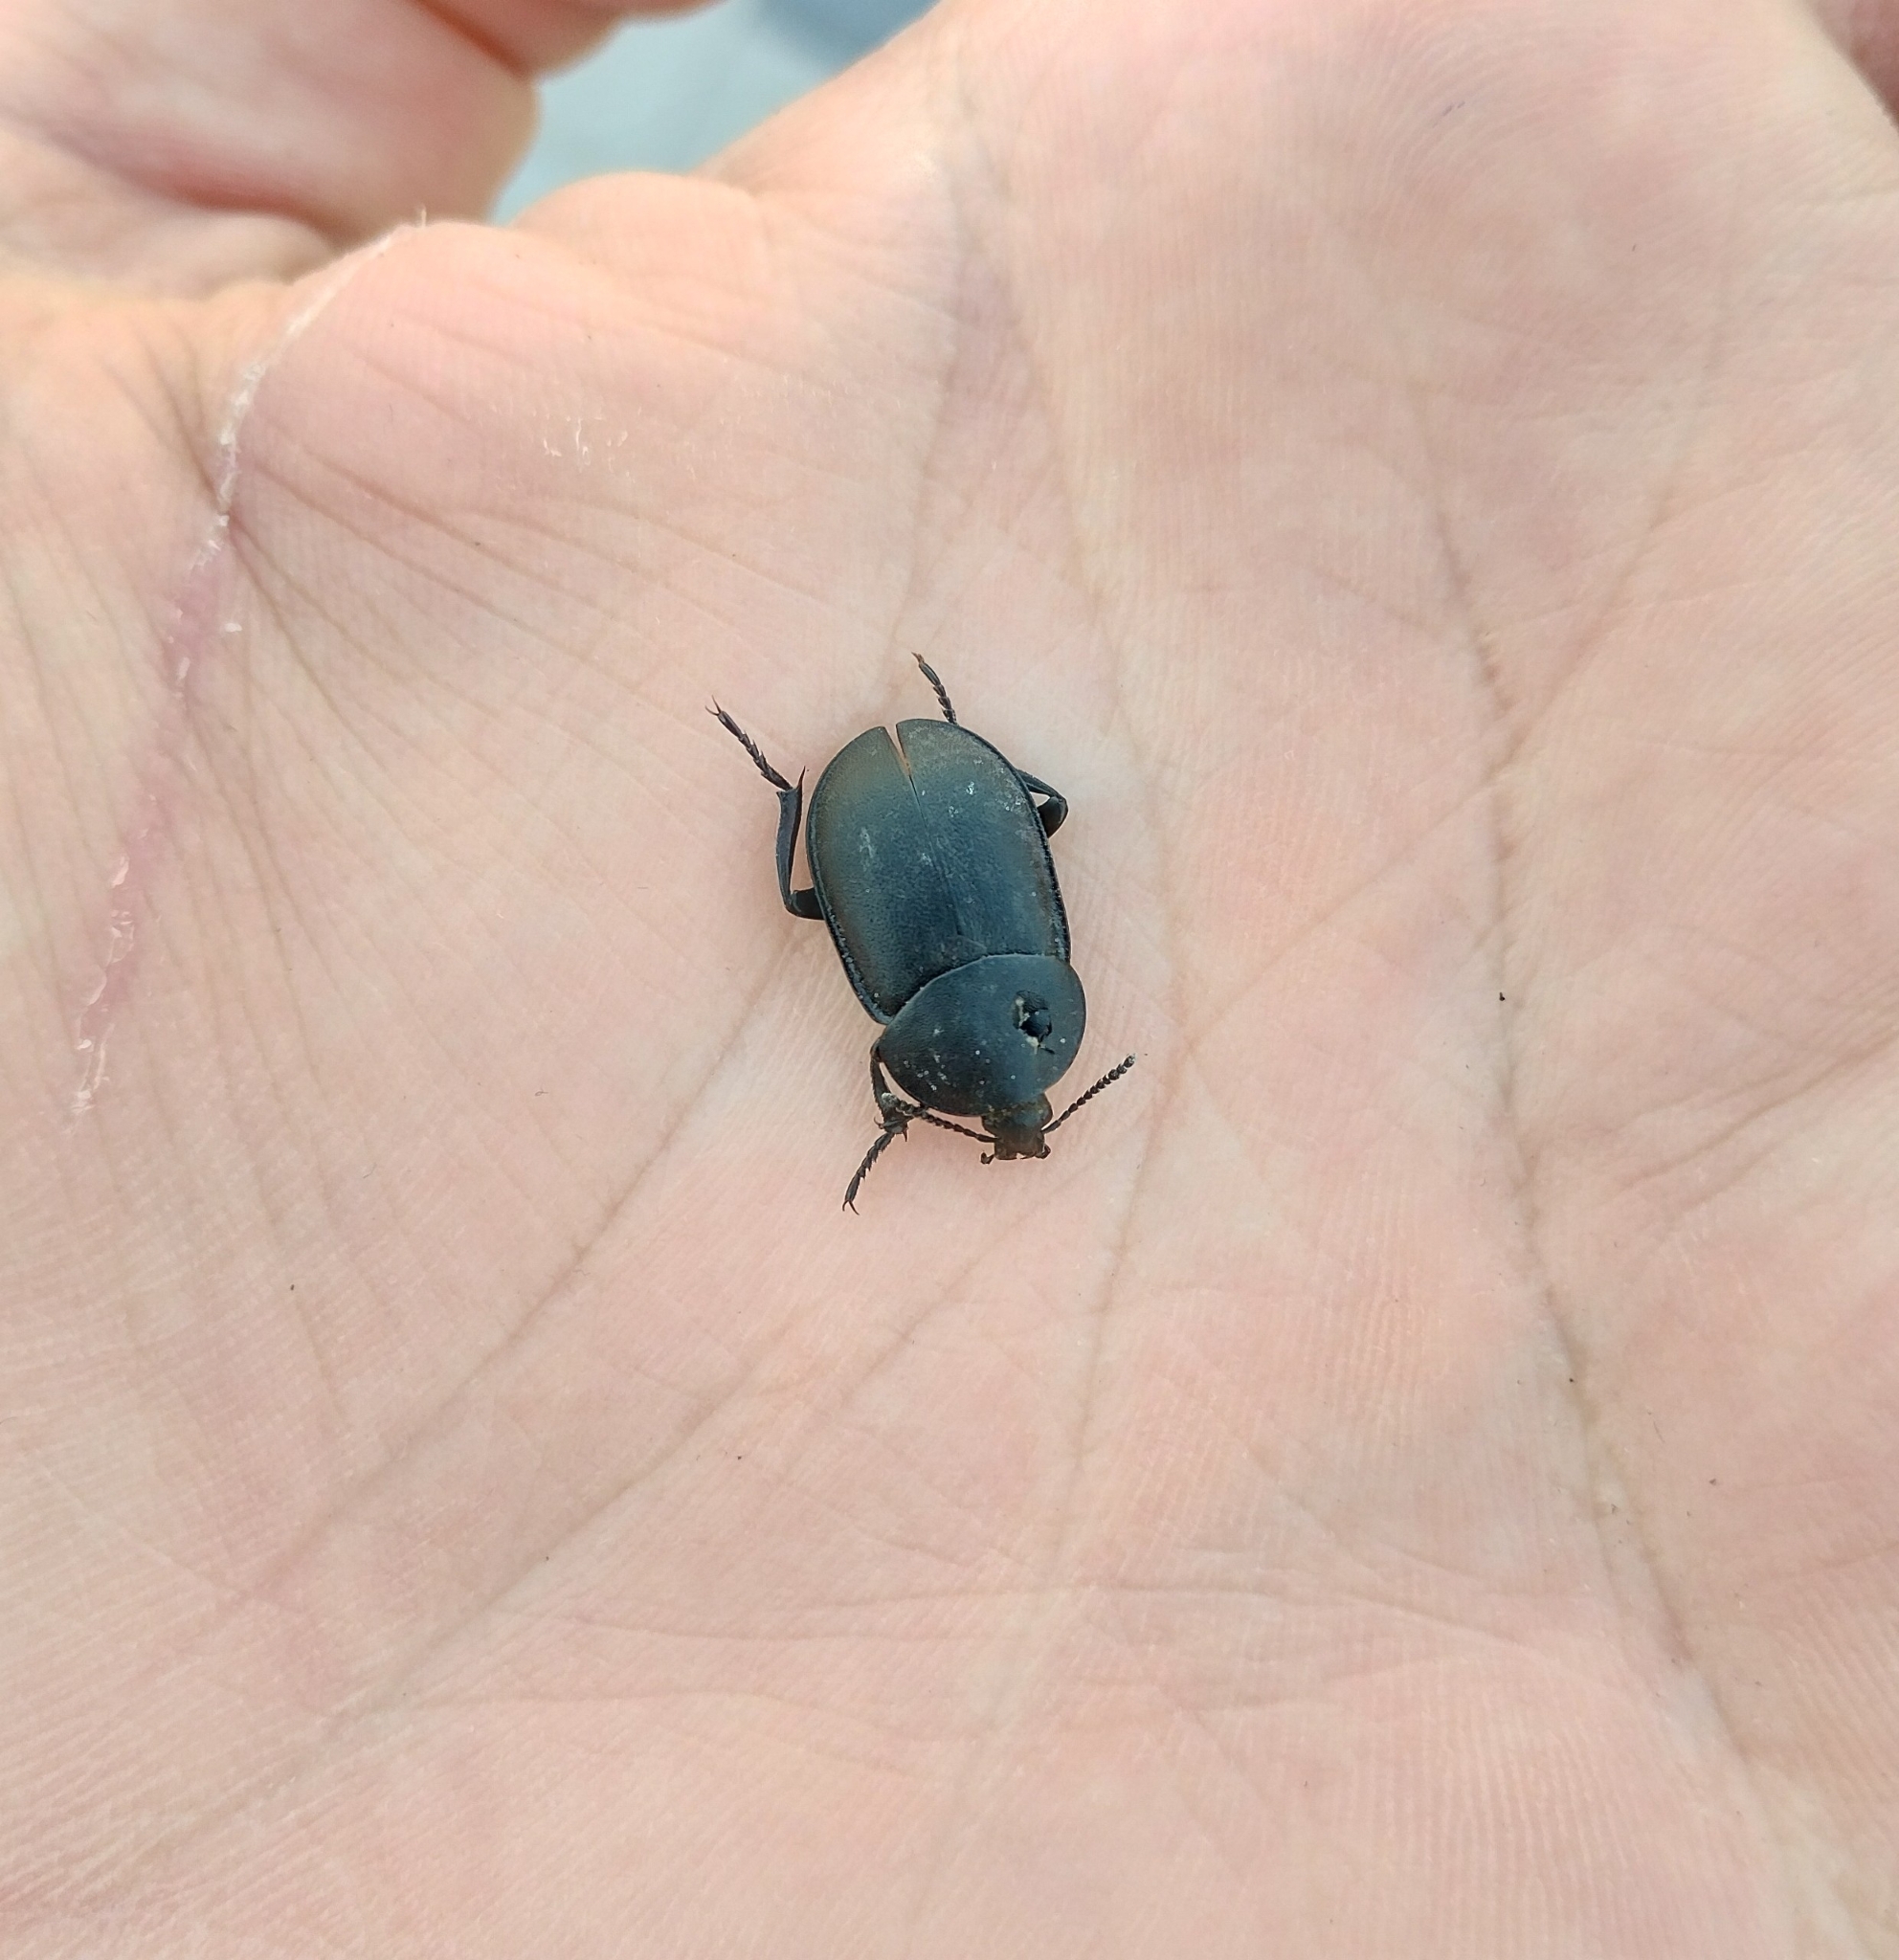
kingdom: Animalia
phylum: Arthropoda
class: Insecta
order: Coleoptera
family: Staphylinidae
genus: Silpha
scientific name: Silpha laevigata
